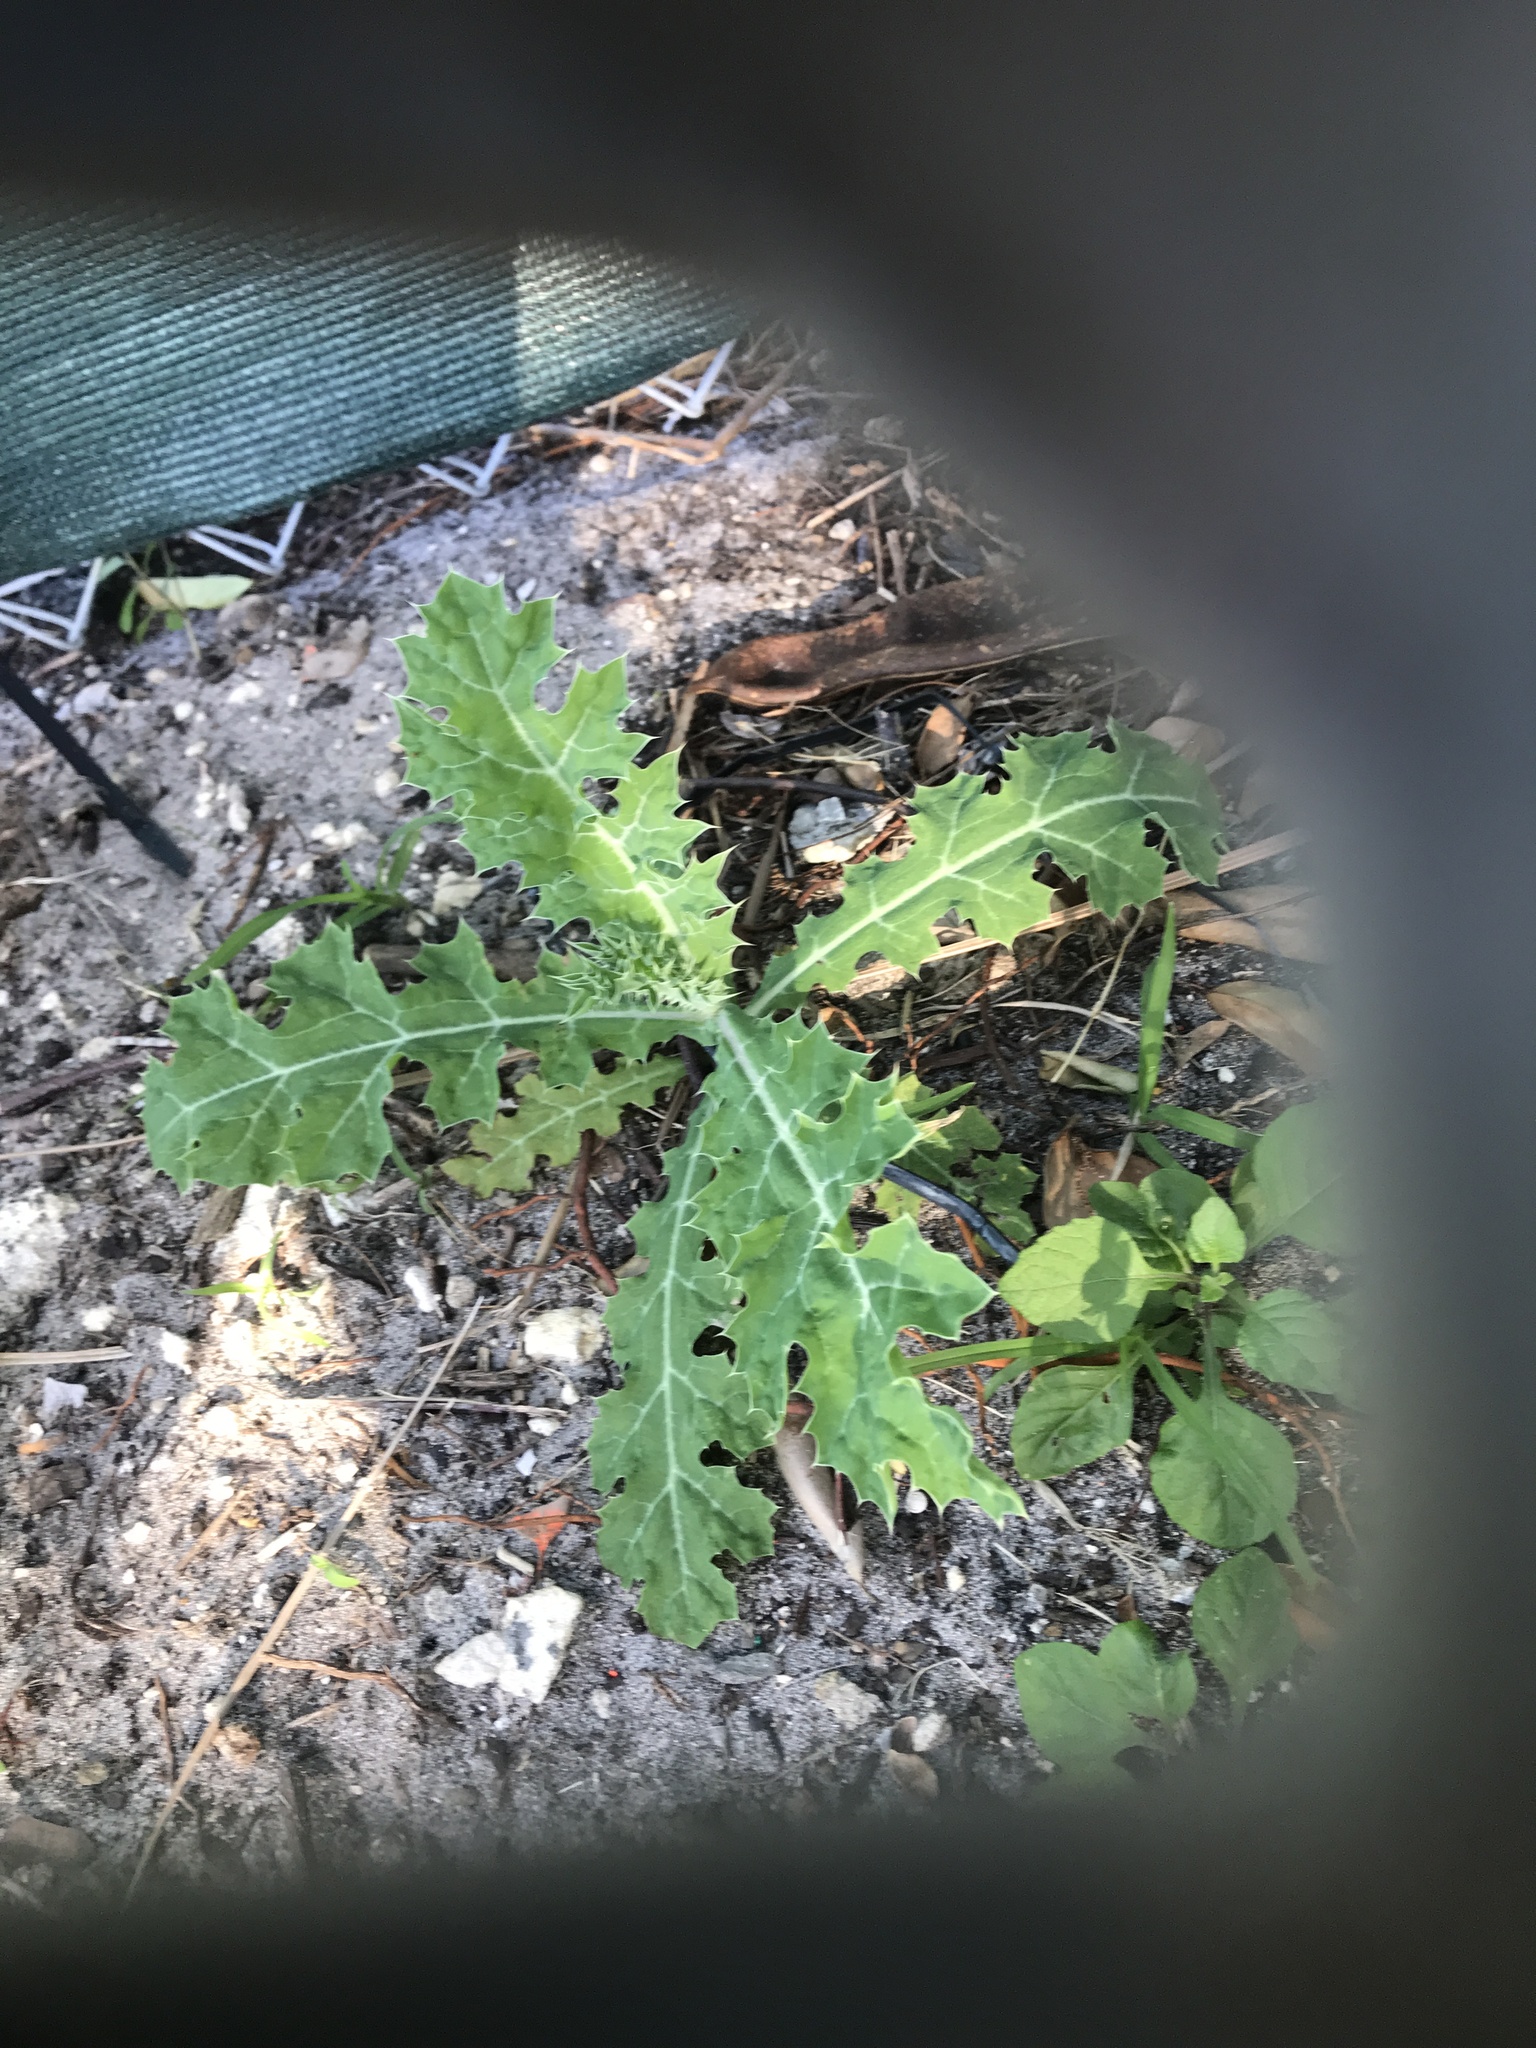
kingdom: Plantae
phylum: Tracheophyta
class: Magnoliopsida
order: Ranunculales
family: Papaveraceae
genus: Argemone
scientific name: Argemone mexicana
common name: Mexican poppy
